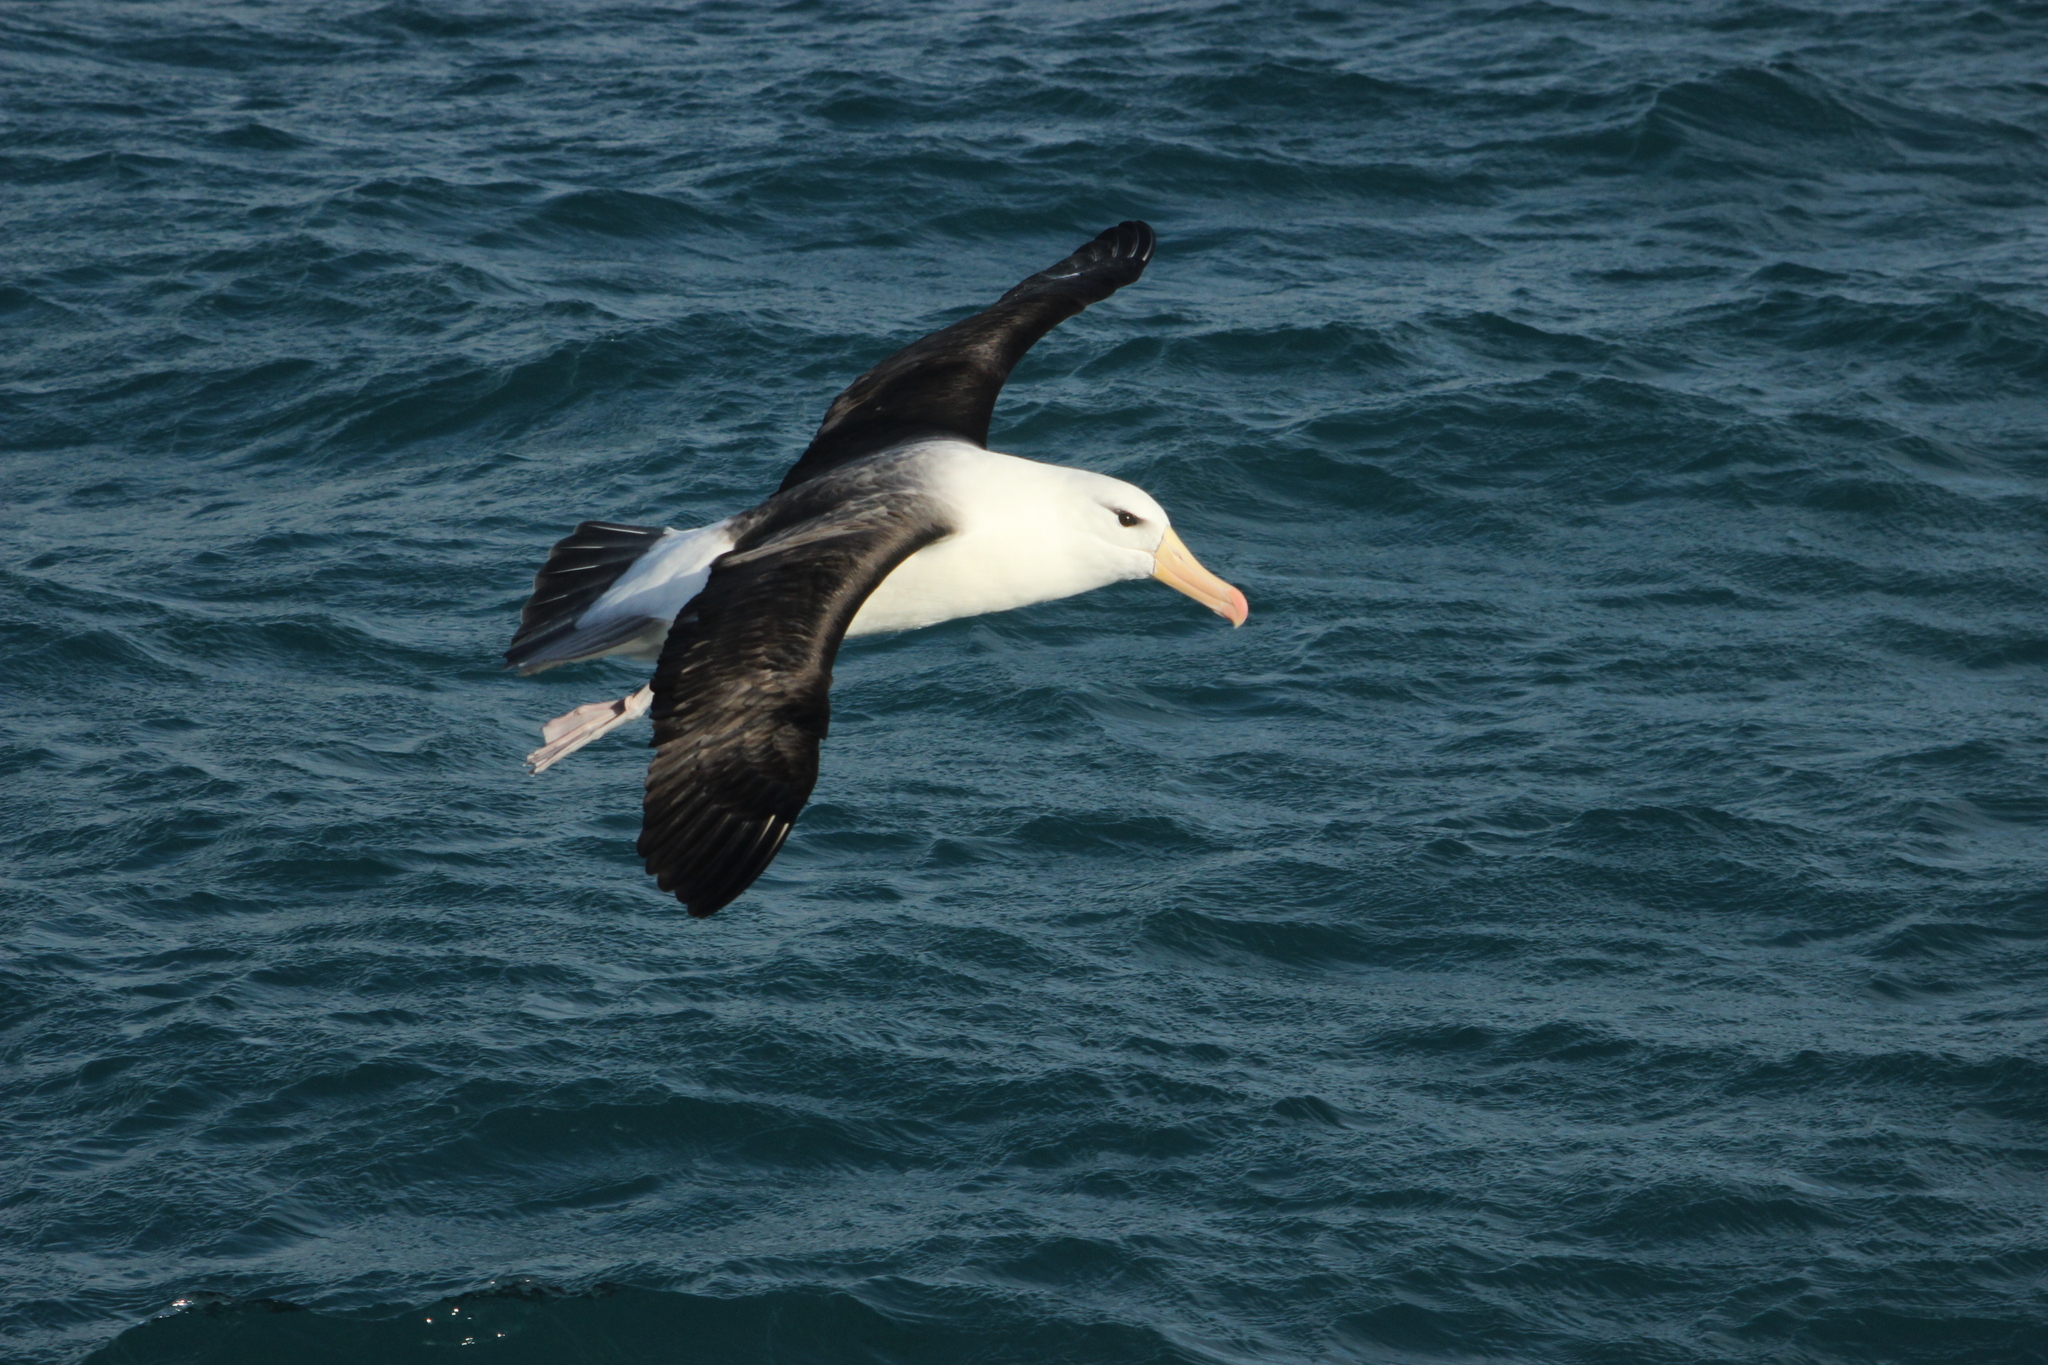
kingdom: Animalia
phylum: Chordata
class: Aves
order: Procellariiformes
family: Diomedeidae
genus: Thalassarche
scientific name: Thalassarche melanophris
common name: Black-browed albatross
